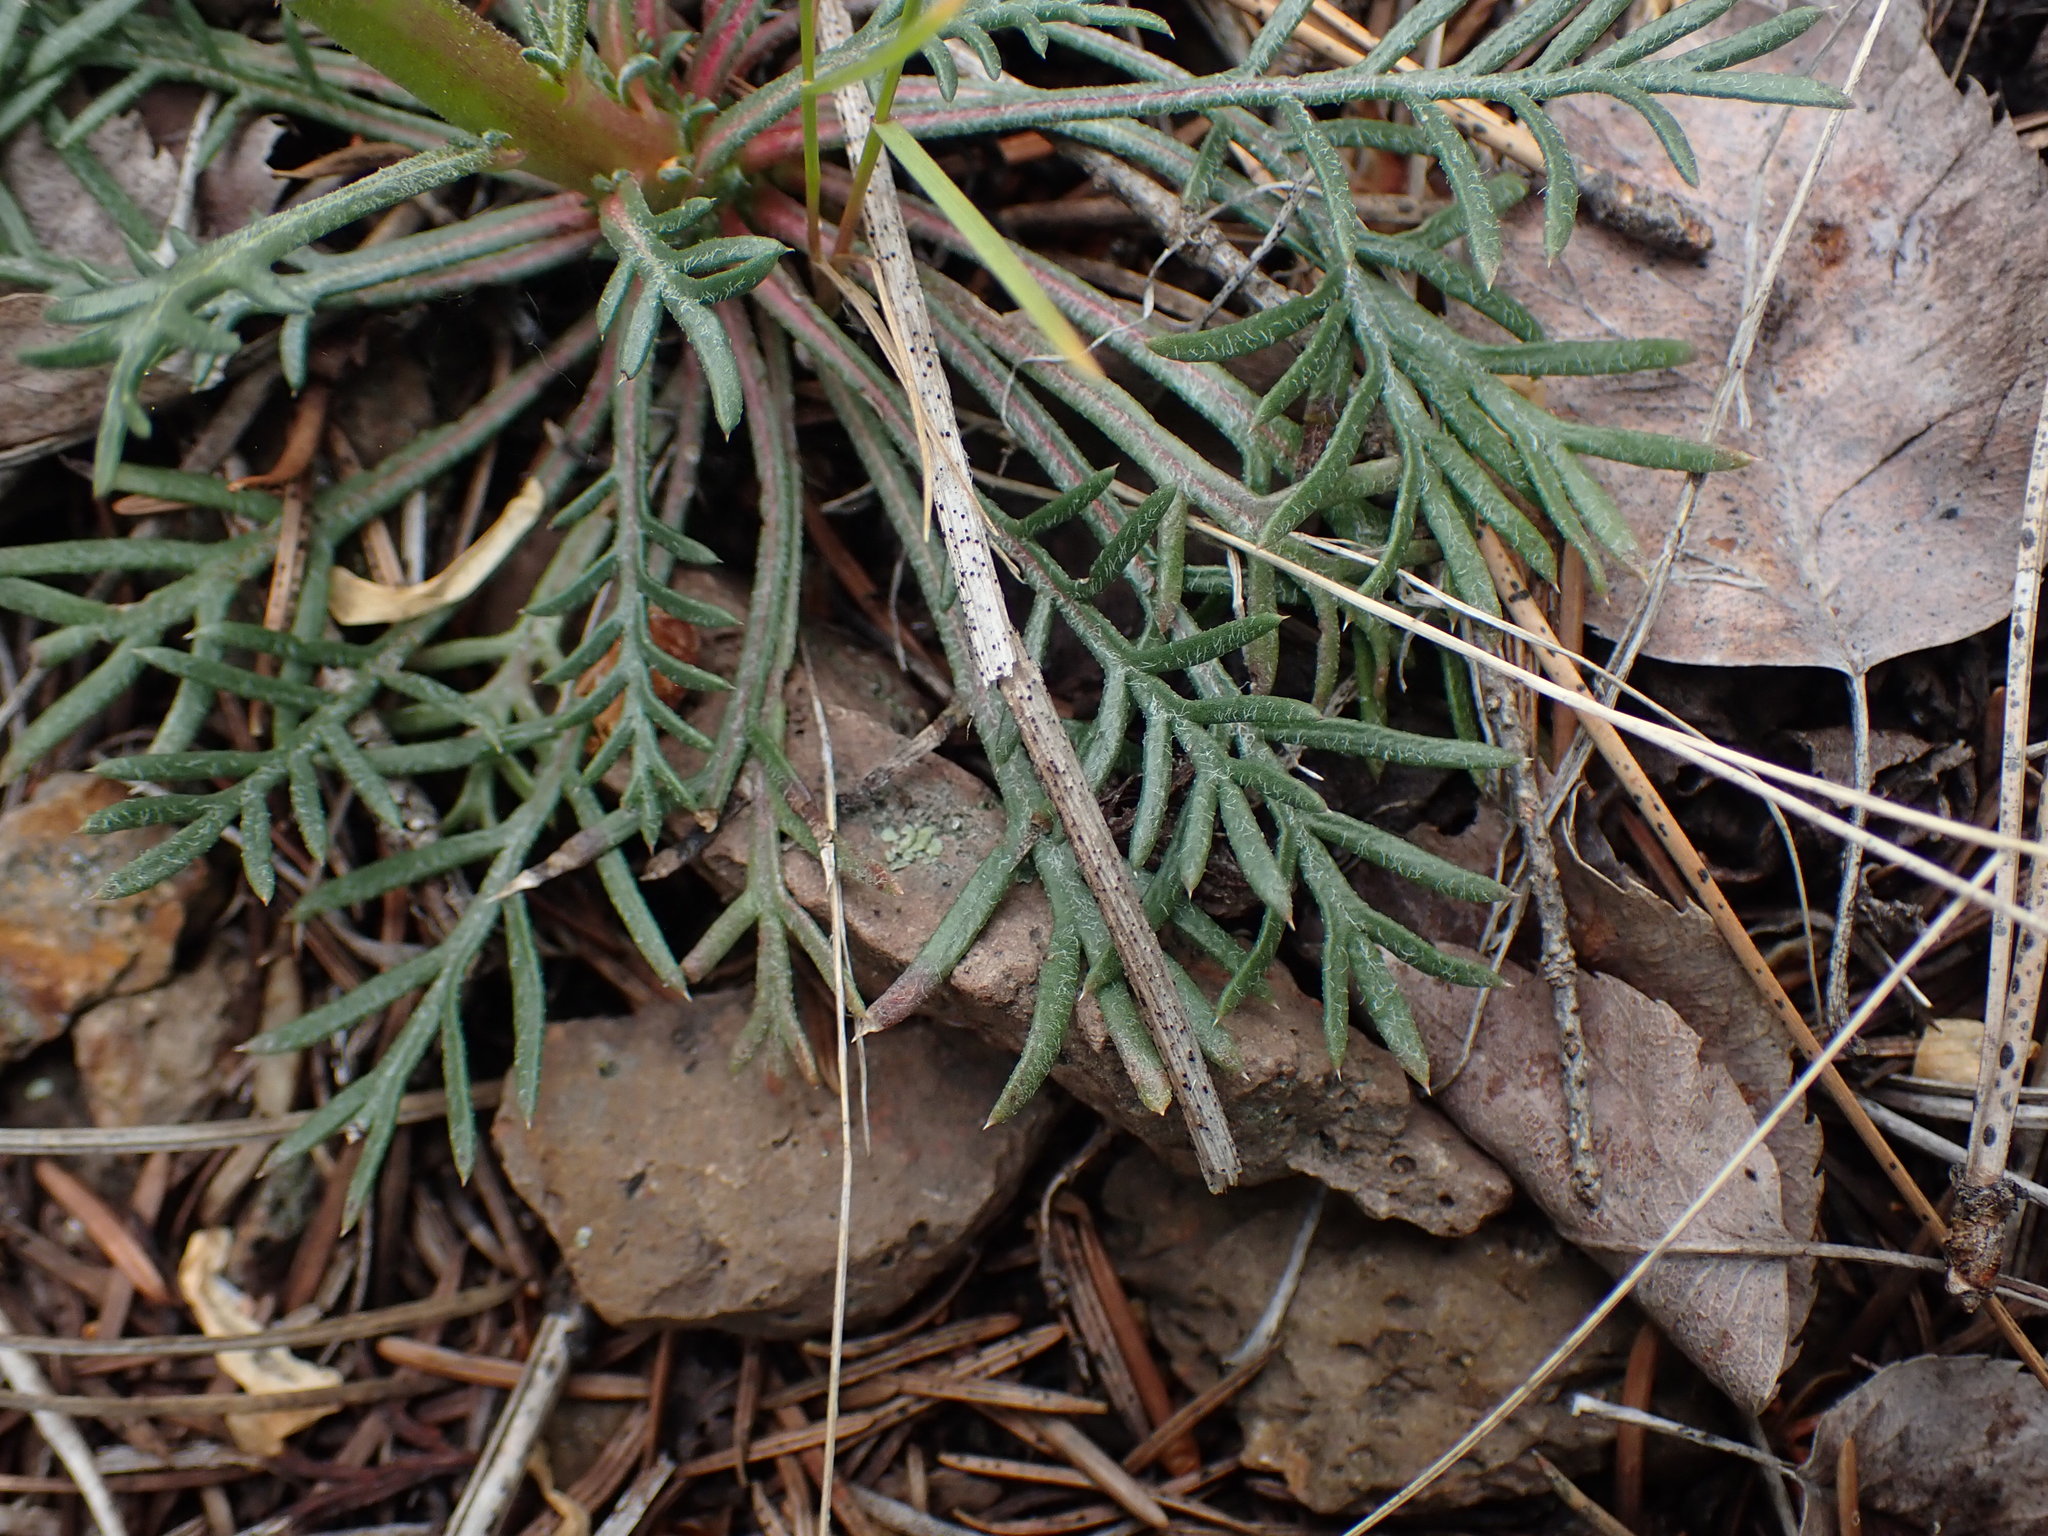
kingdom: Plantae
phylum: Tracheophyta
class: Magnoliopsida
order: Ericales
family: Polemoniaceae
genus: Ipomopsis
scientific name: Ipomopsis aggregata
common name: Scarlet gilia
